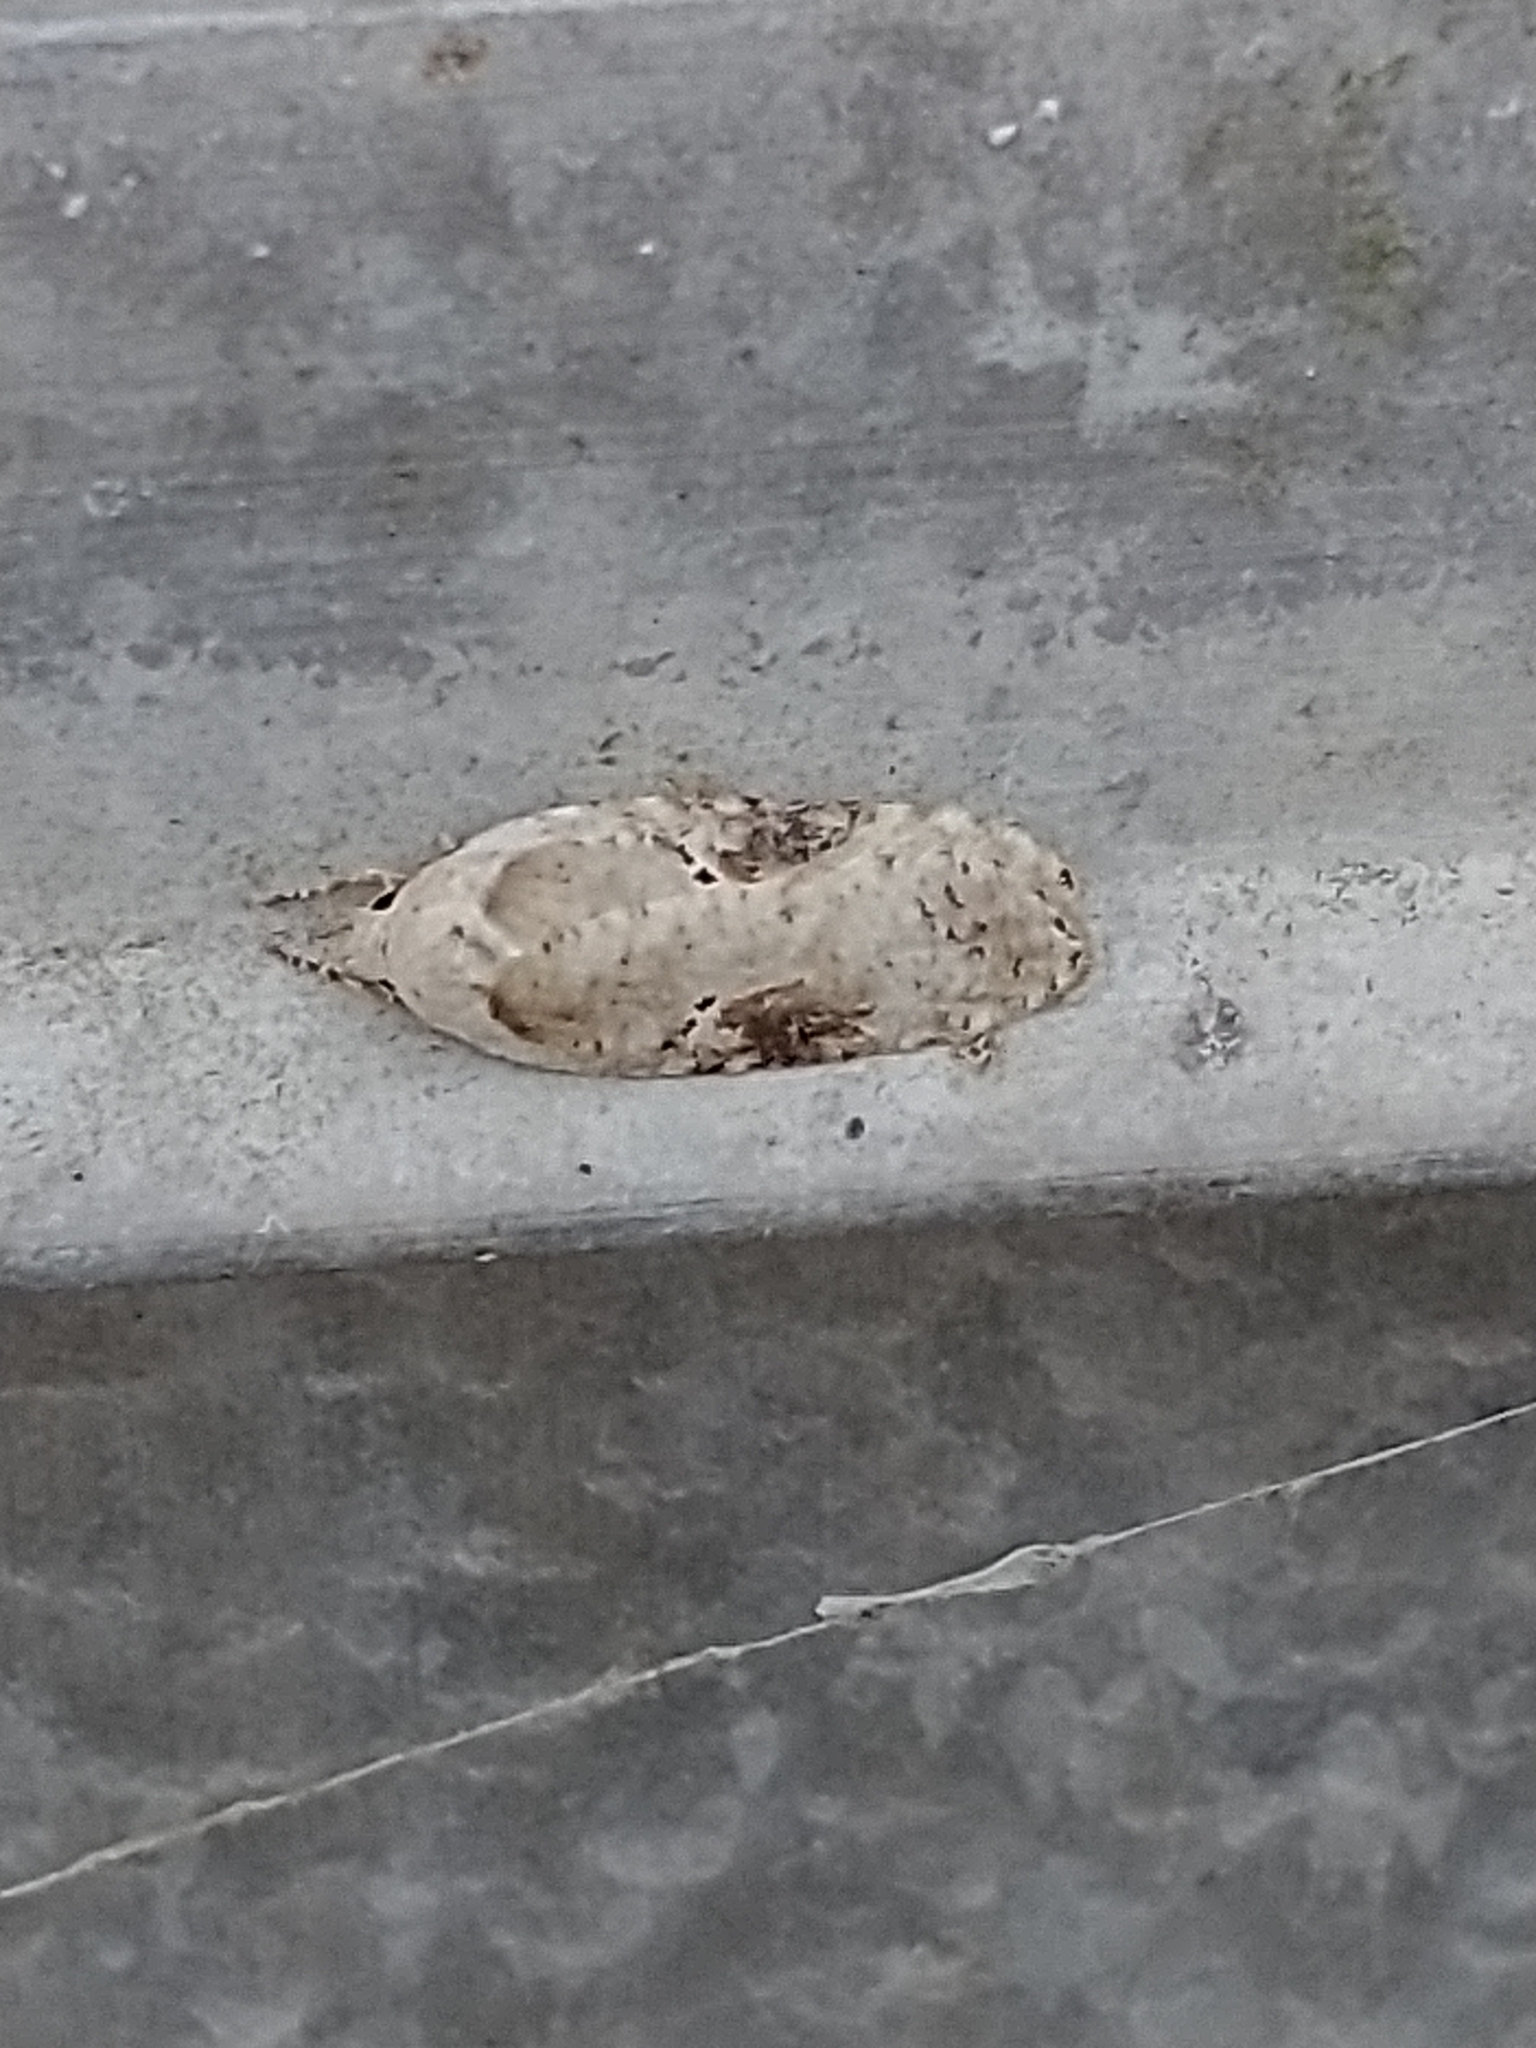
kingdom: Animalia
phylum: Arthropoda
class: Insecta
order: Lepidoptera
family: Depressariidae
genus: Agonopterix
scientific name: Agonopterix alstroemeriana
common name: Moth
